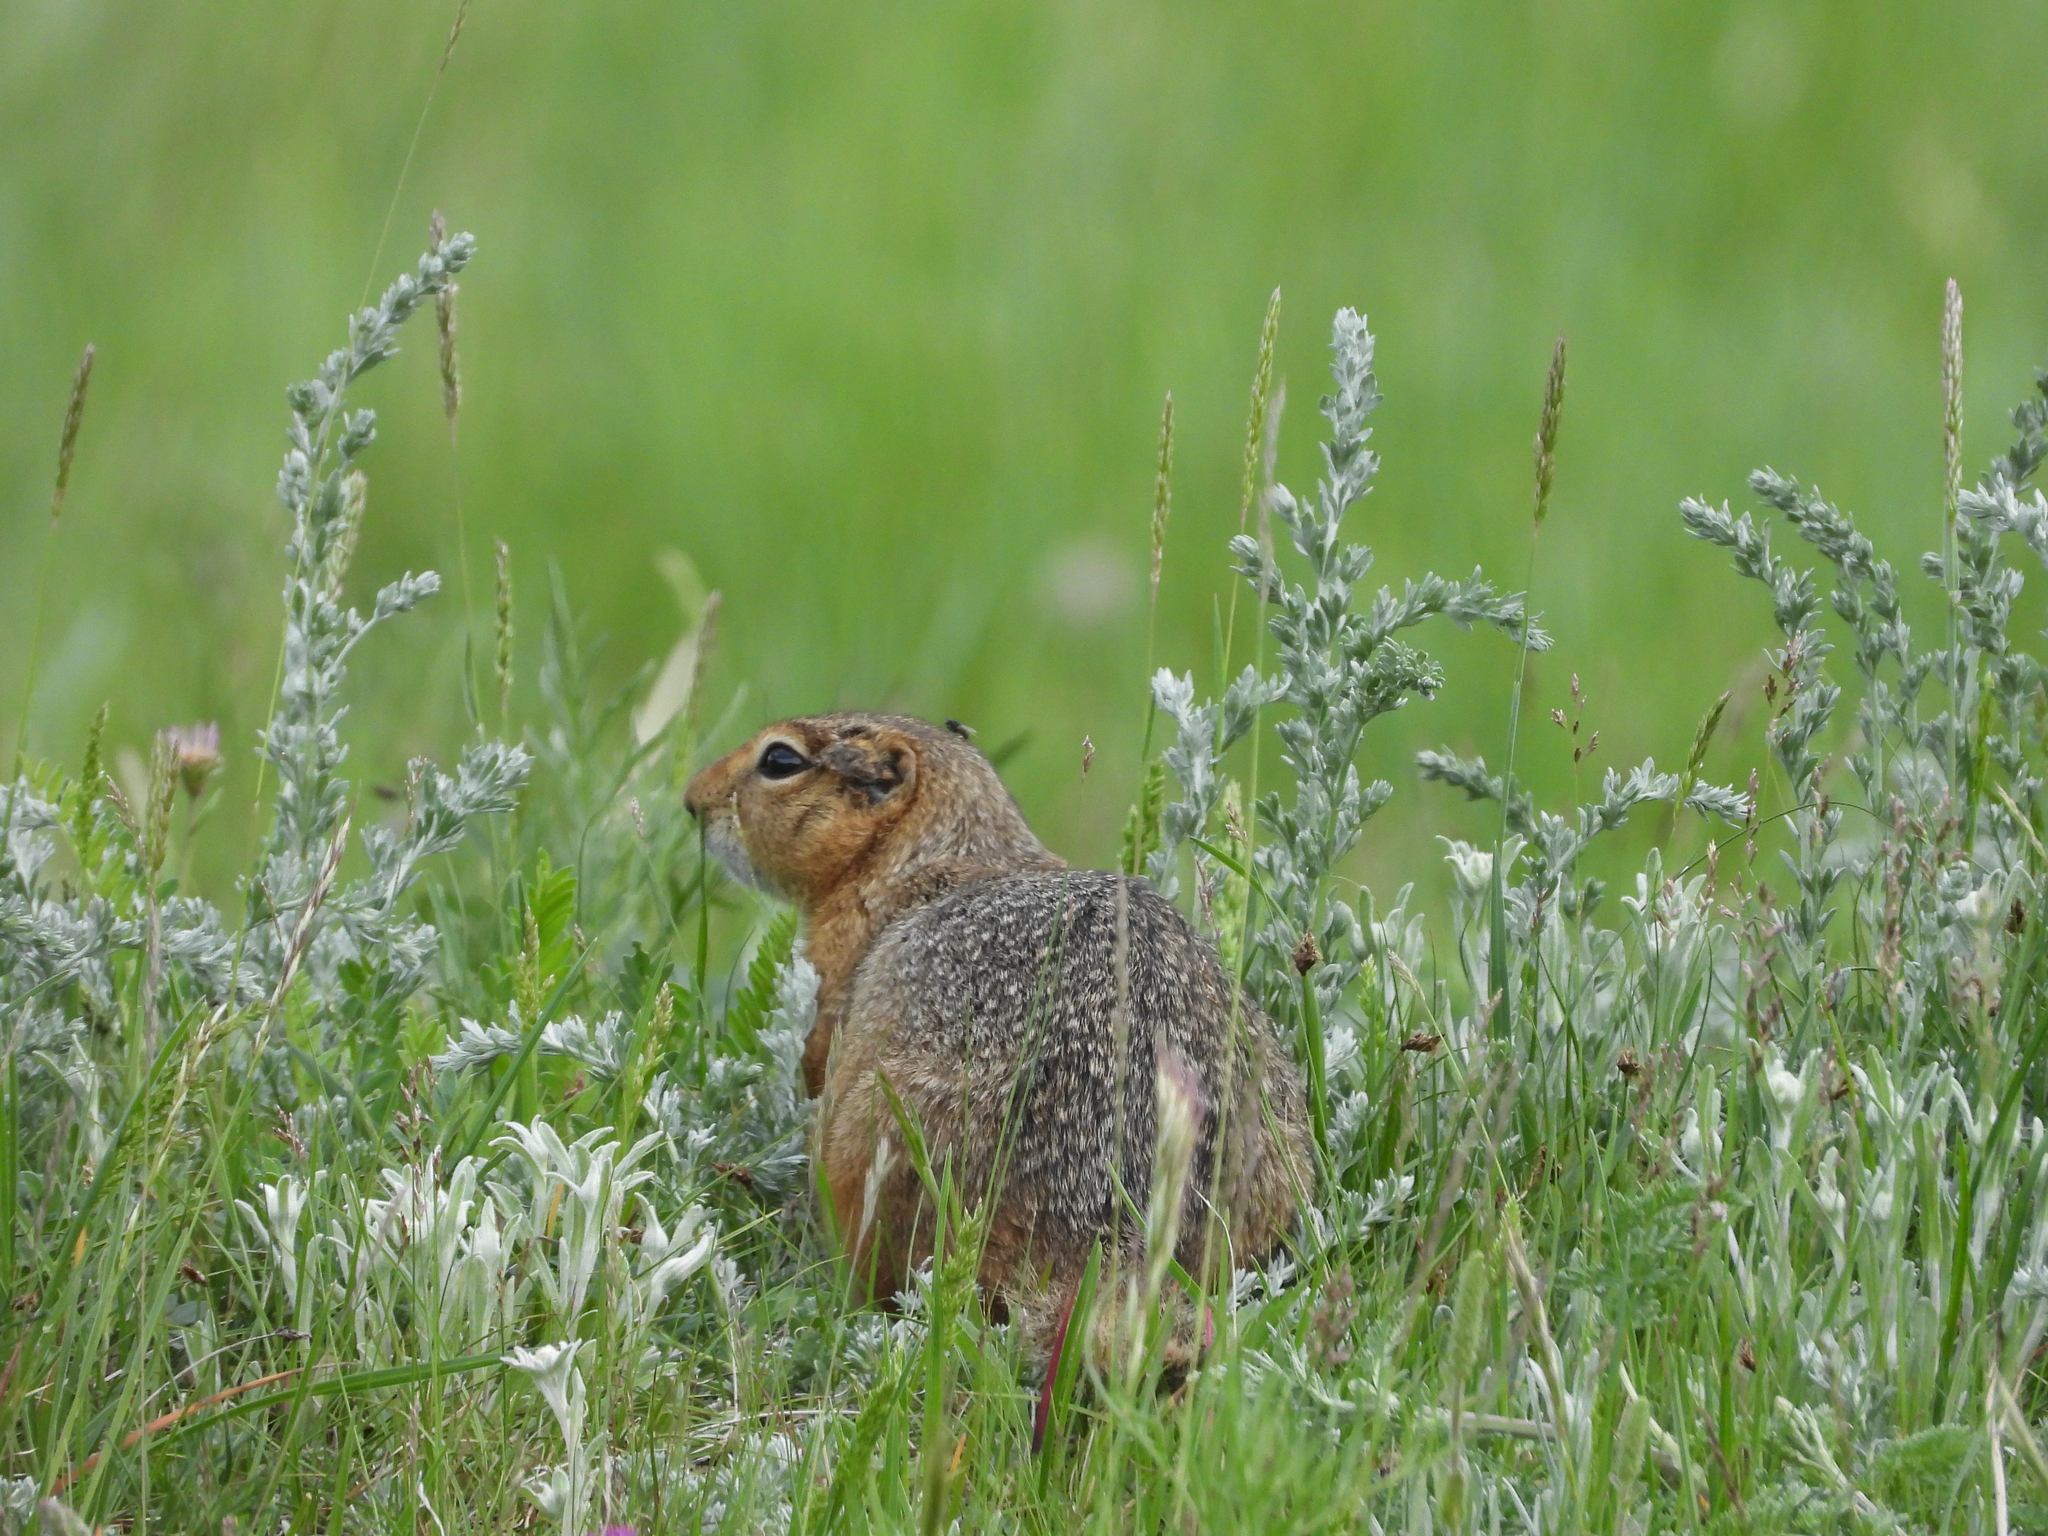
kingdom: Animalia
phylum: Chordata
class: Mammalia
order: Rodentia
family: Sciuridae
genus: Urocitellus
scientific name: Urocitellus undulatus
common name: Long-tailed ground squirrel
